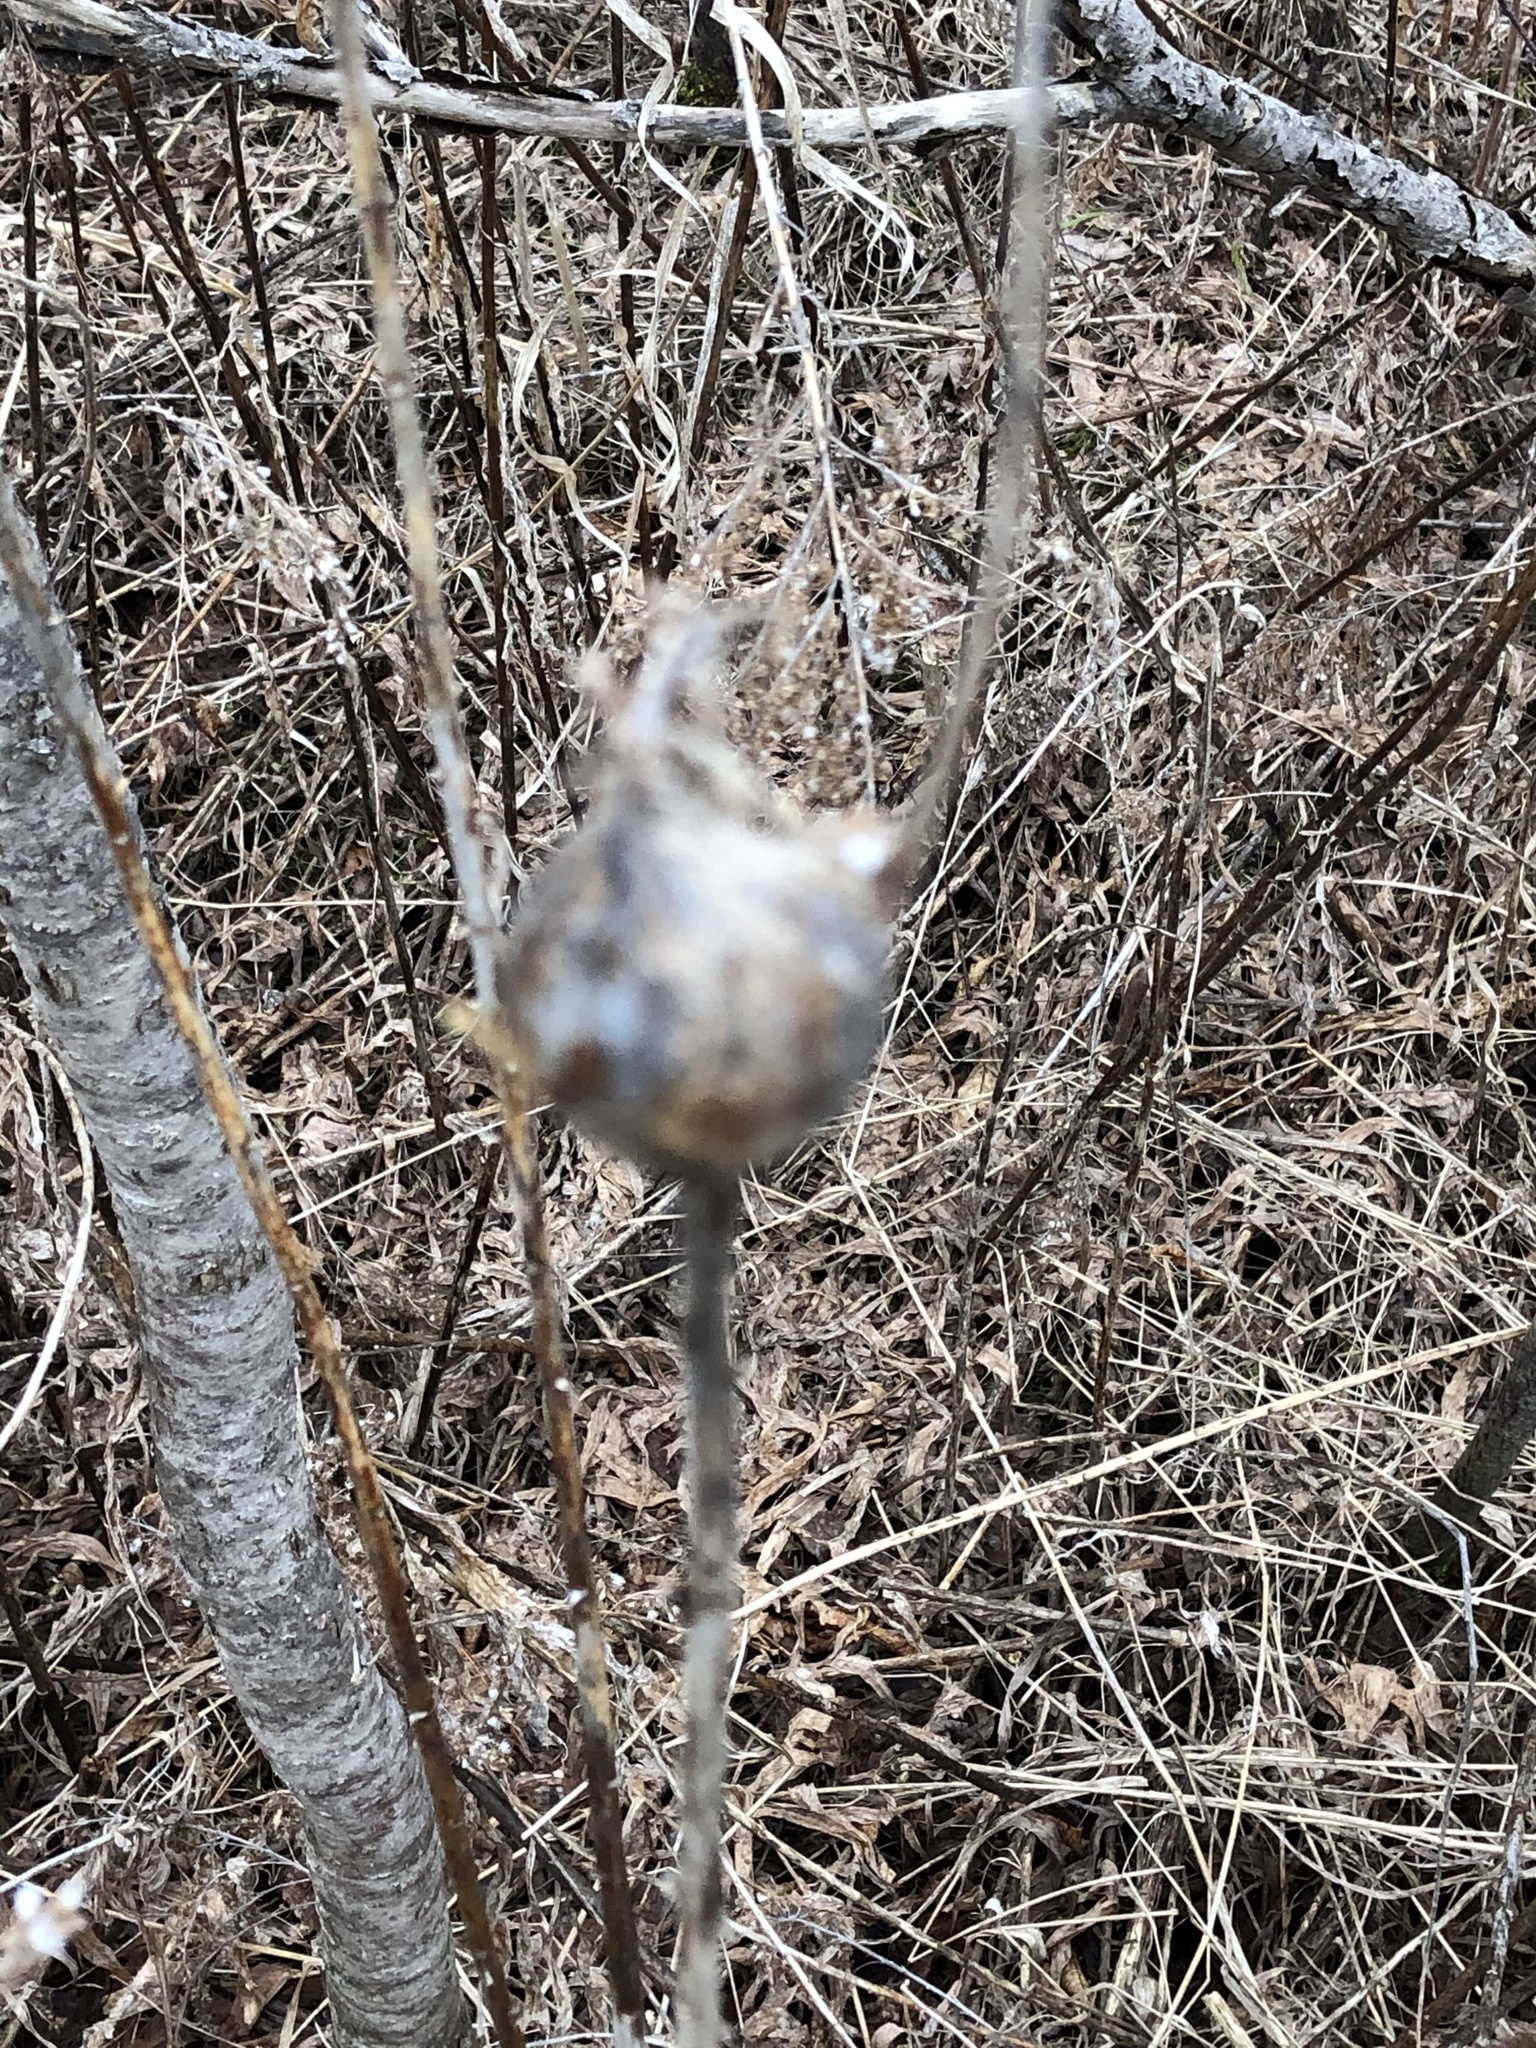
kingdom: Animalia
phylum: Arthropoda
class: Insecta
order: Diptera
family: Tephritidae
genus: Eurosta
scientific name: Eurosta solidaginis
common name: Goldenrod gall fly
